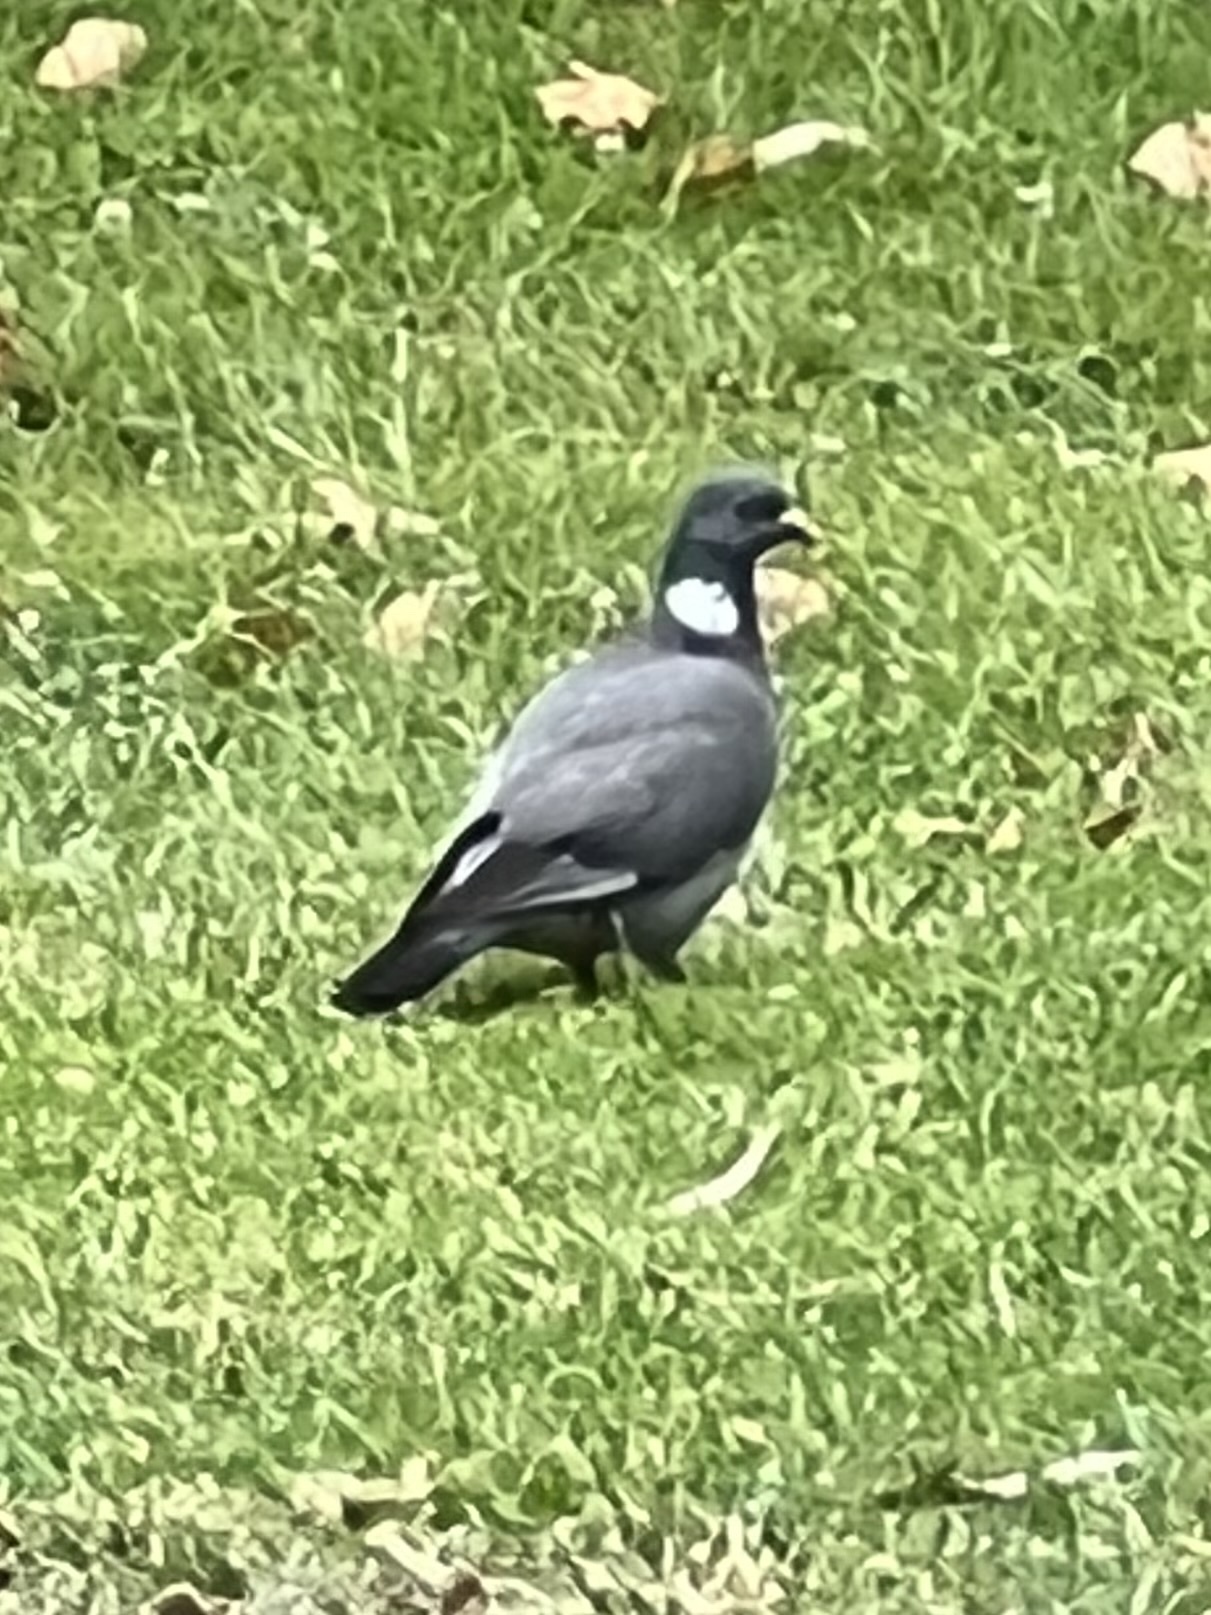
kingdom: Animalia
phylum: Chordata
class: Aves
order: Columbiformes
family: Columbidae
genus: Columba
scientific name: Columba palumbus
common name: Common wood pigeon
